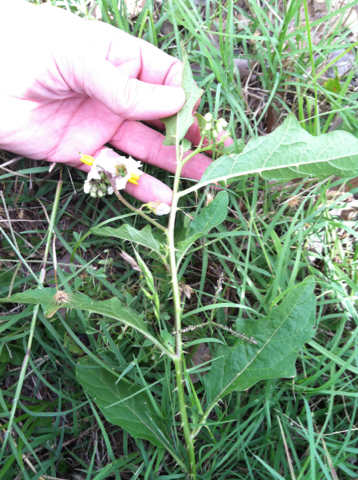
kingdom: Plantae
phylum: Tracheophyta
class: Magnoliopsida
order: Solanales
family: Solanaceae
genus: Solanum
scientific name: Solanum carolinense
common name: Horse-nettle
